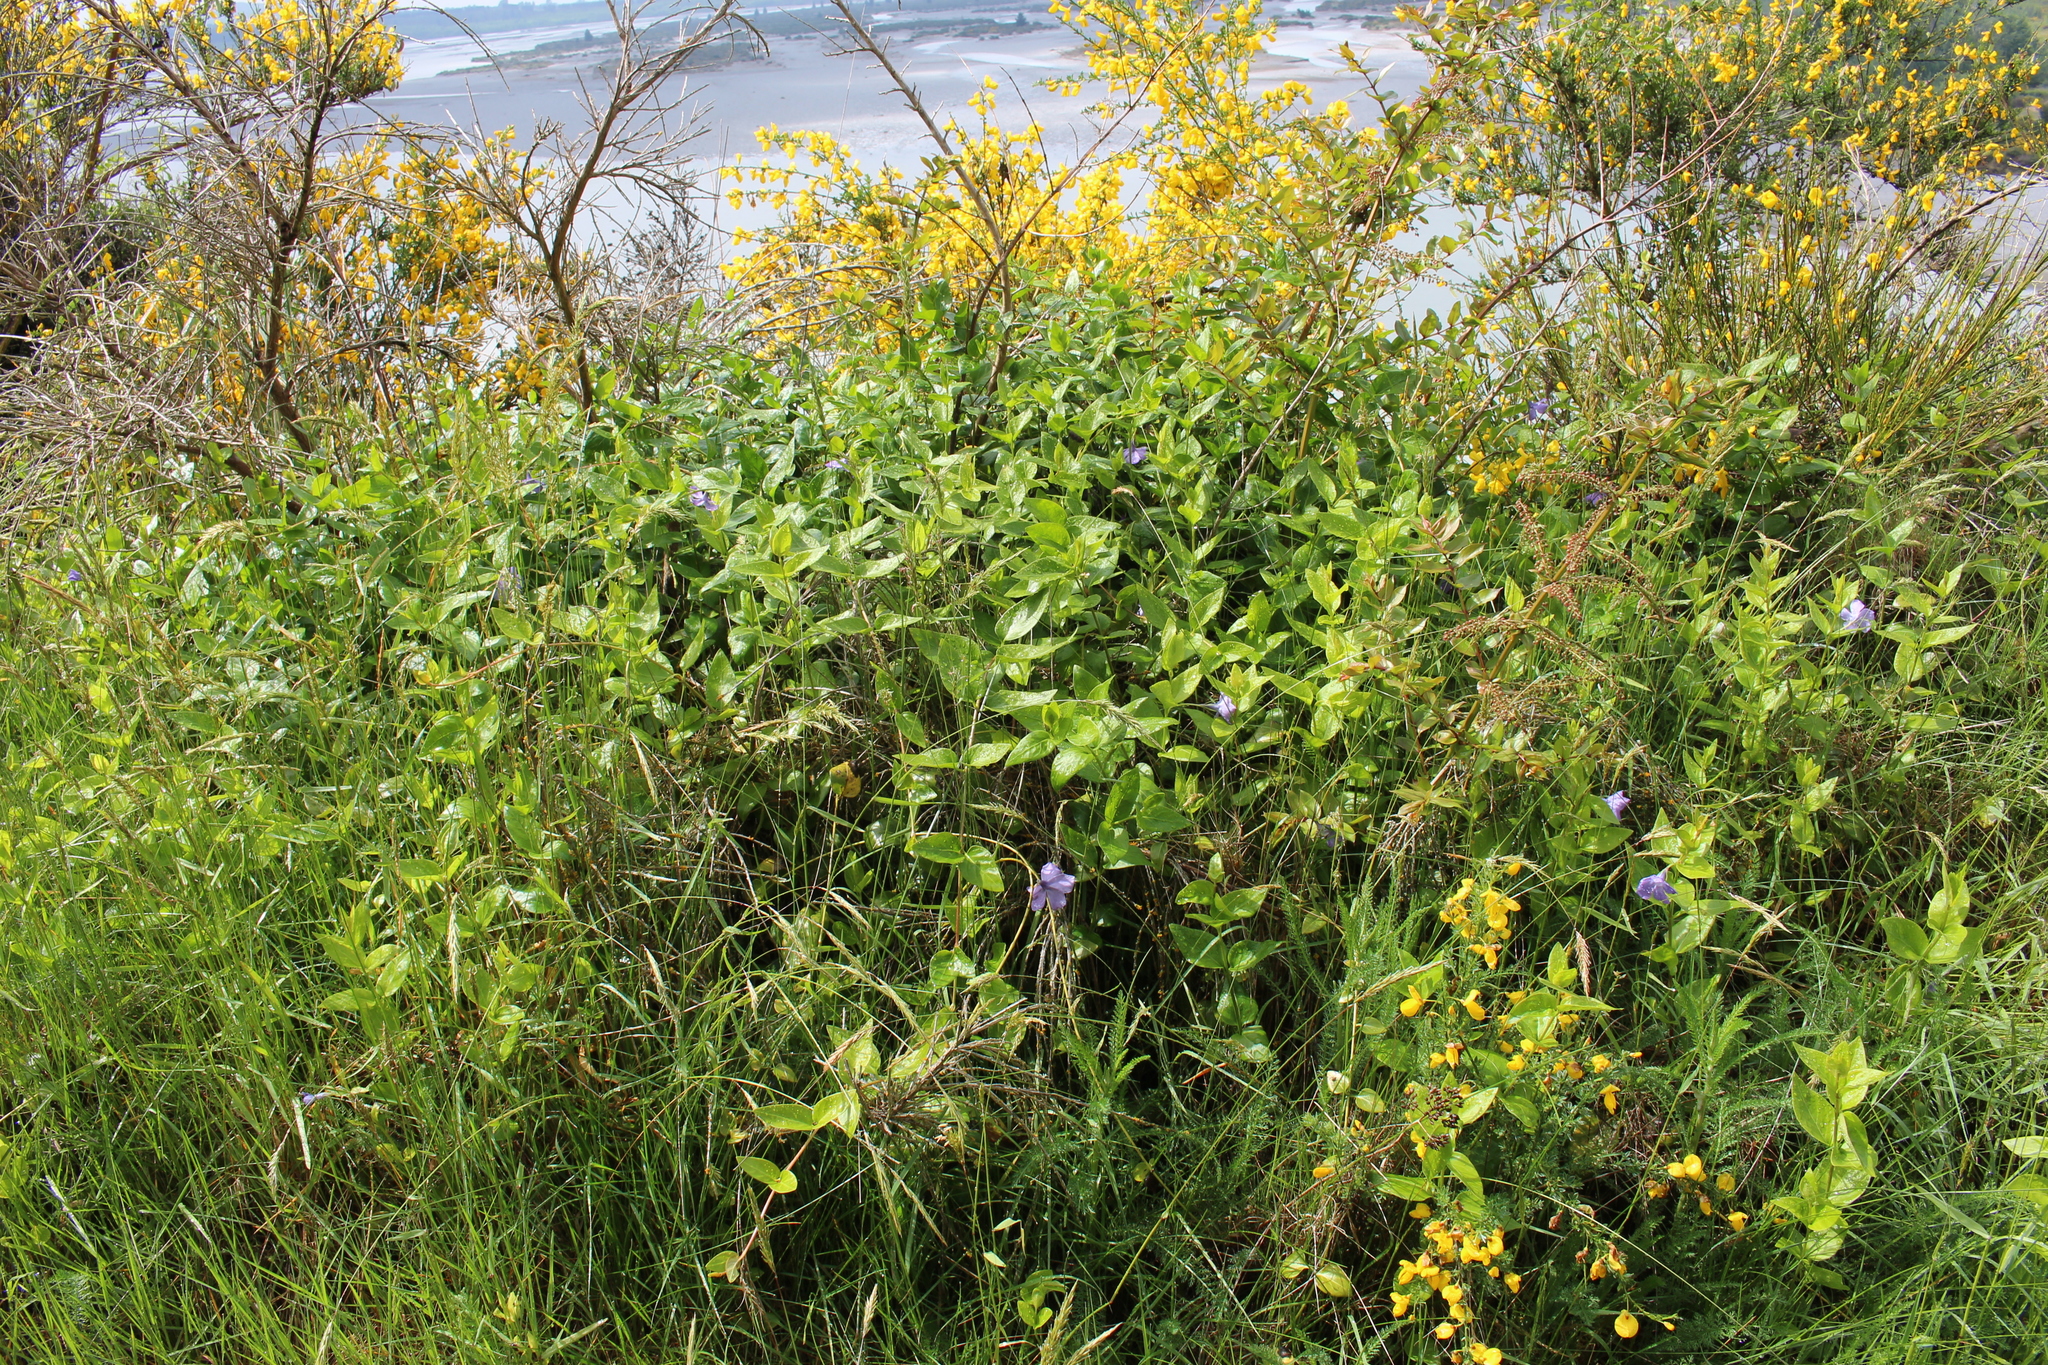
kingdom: Plantae
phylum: Tracheophyta
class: Magnoliopsida
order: Gentianales
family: Apocynaceae
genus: Vinca
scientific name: Vinca major
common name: Greater periwinkle
